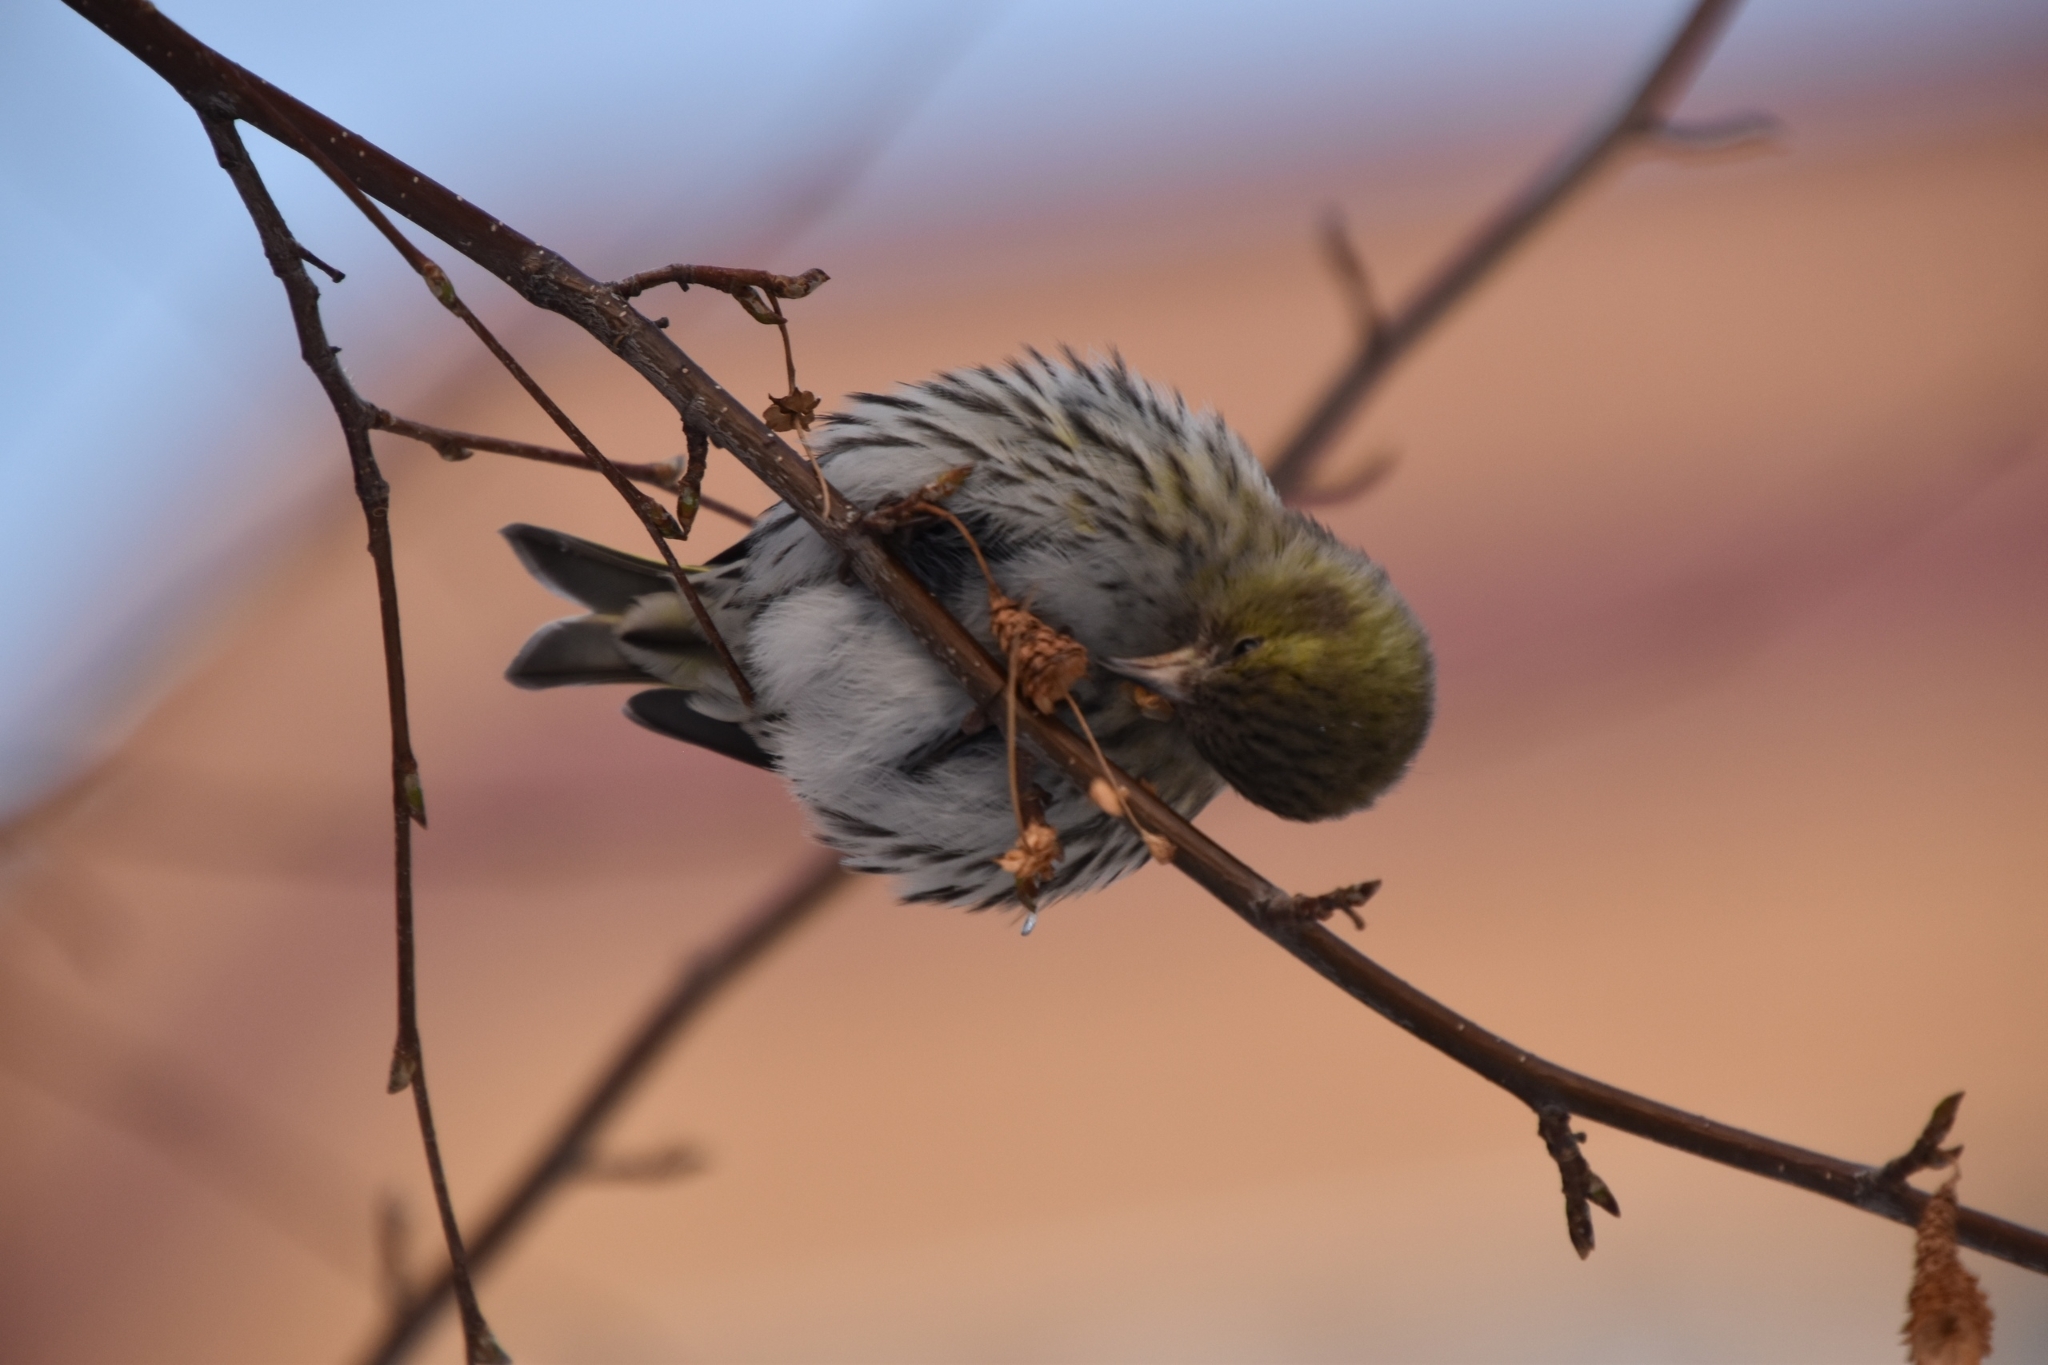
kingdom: Animalia
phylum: Chordata
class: Aves
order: Passeriformes
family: Fringillidae
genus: Spinus
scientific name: Spinus spinus
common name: Eurasian siskin
